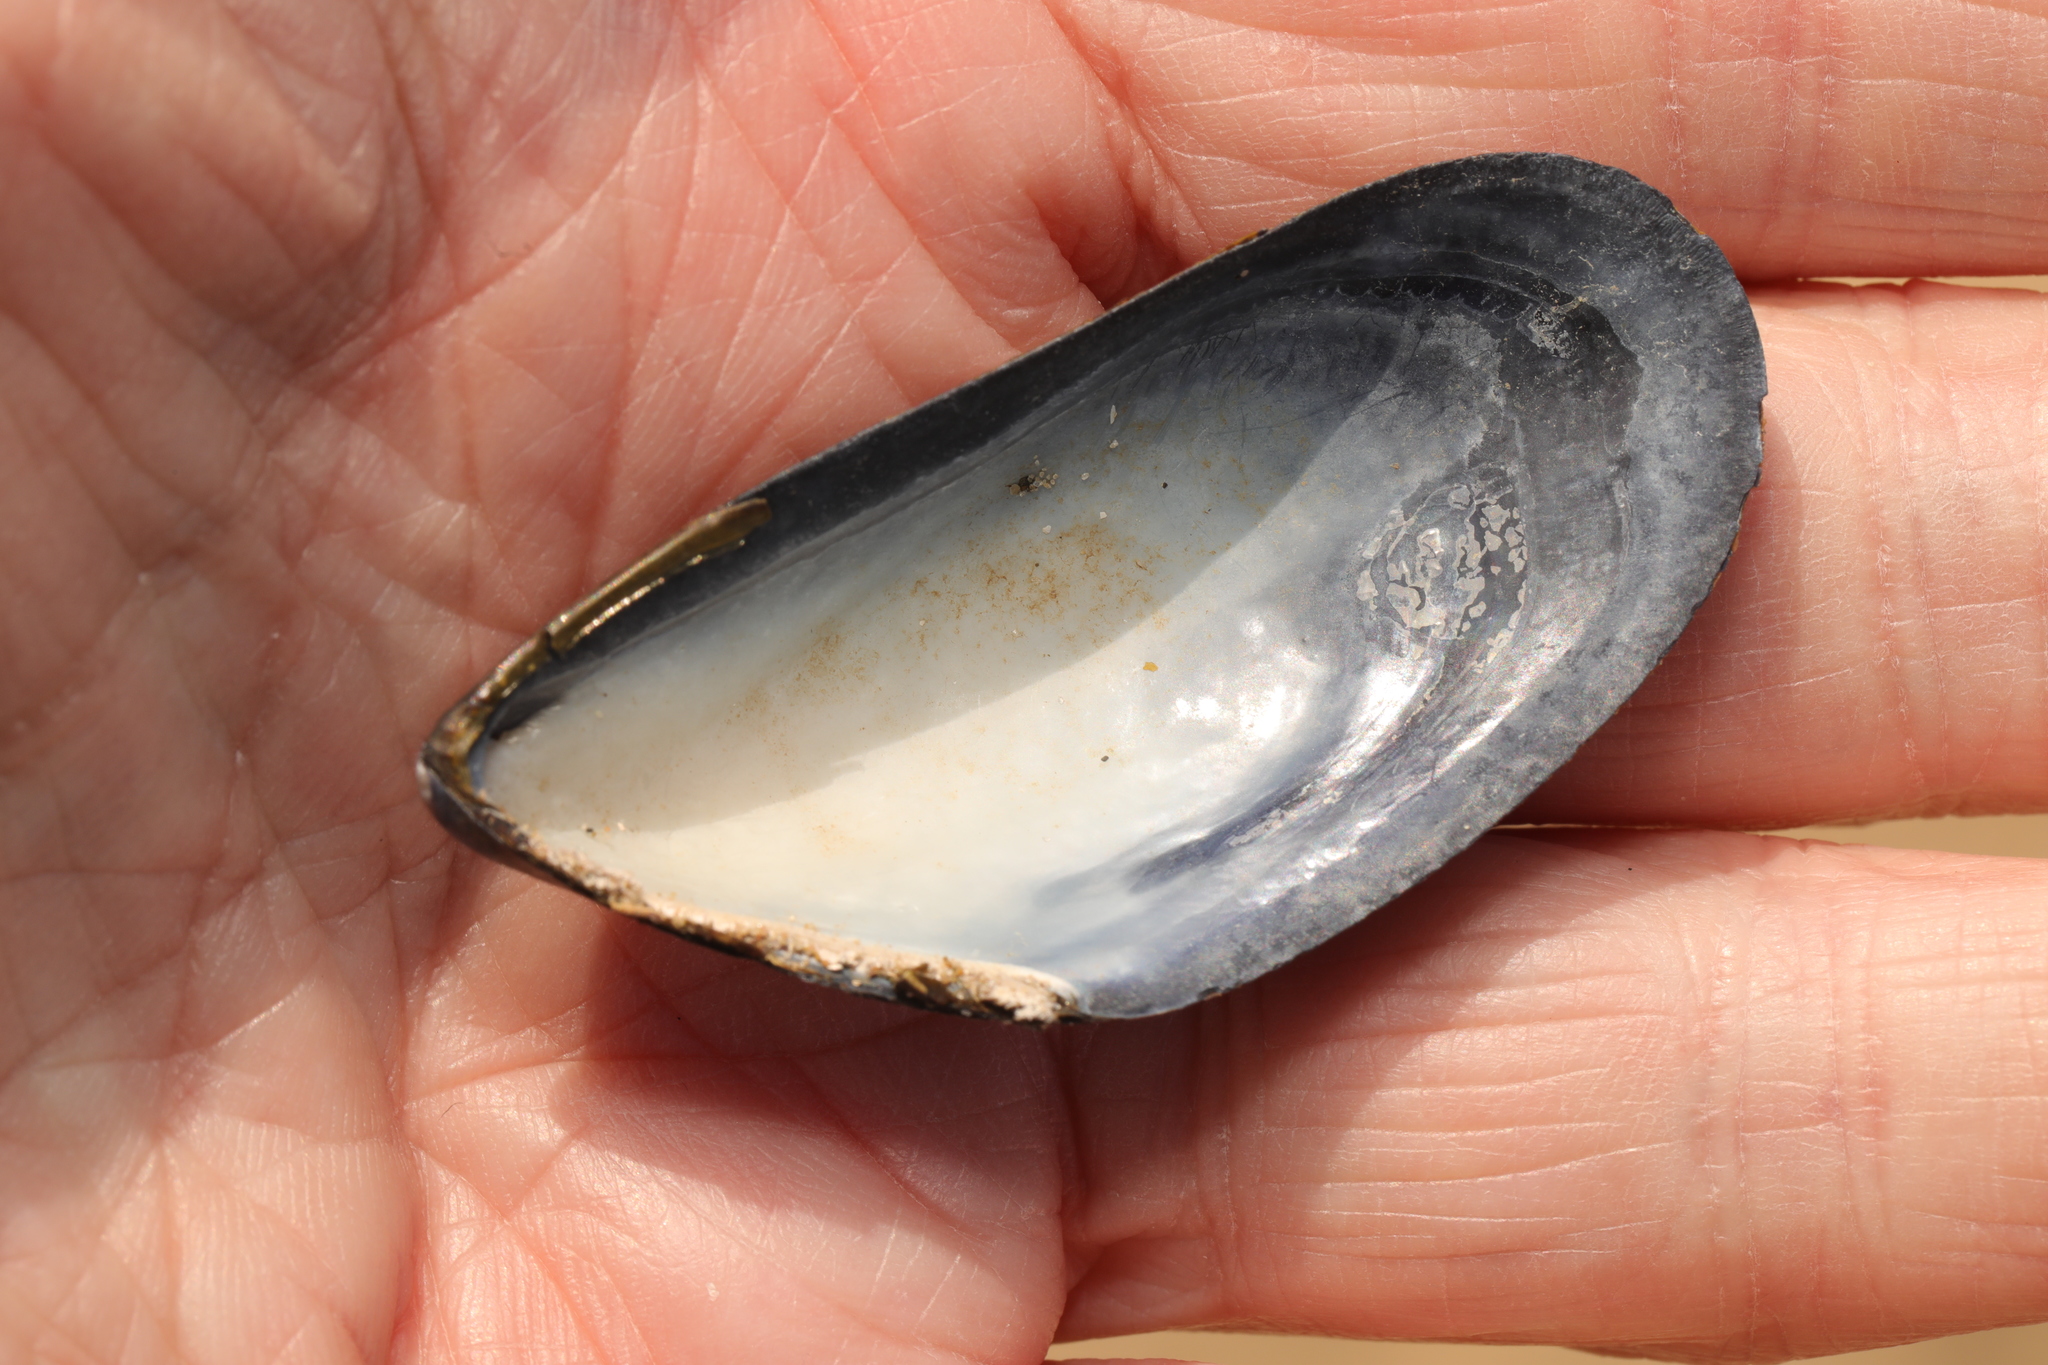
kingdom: Animalia
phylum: Mollusca
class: Bivalvia
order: Mytilida
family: Mytilidae
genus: Mytilus
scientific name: Mytilus edulis
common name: Blue mussel
